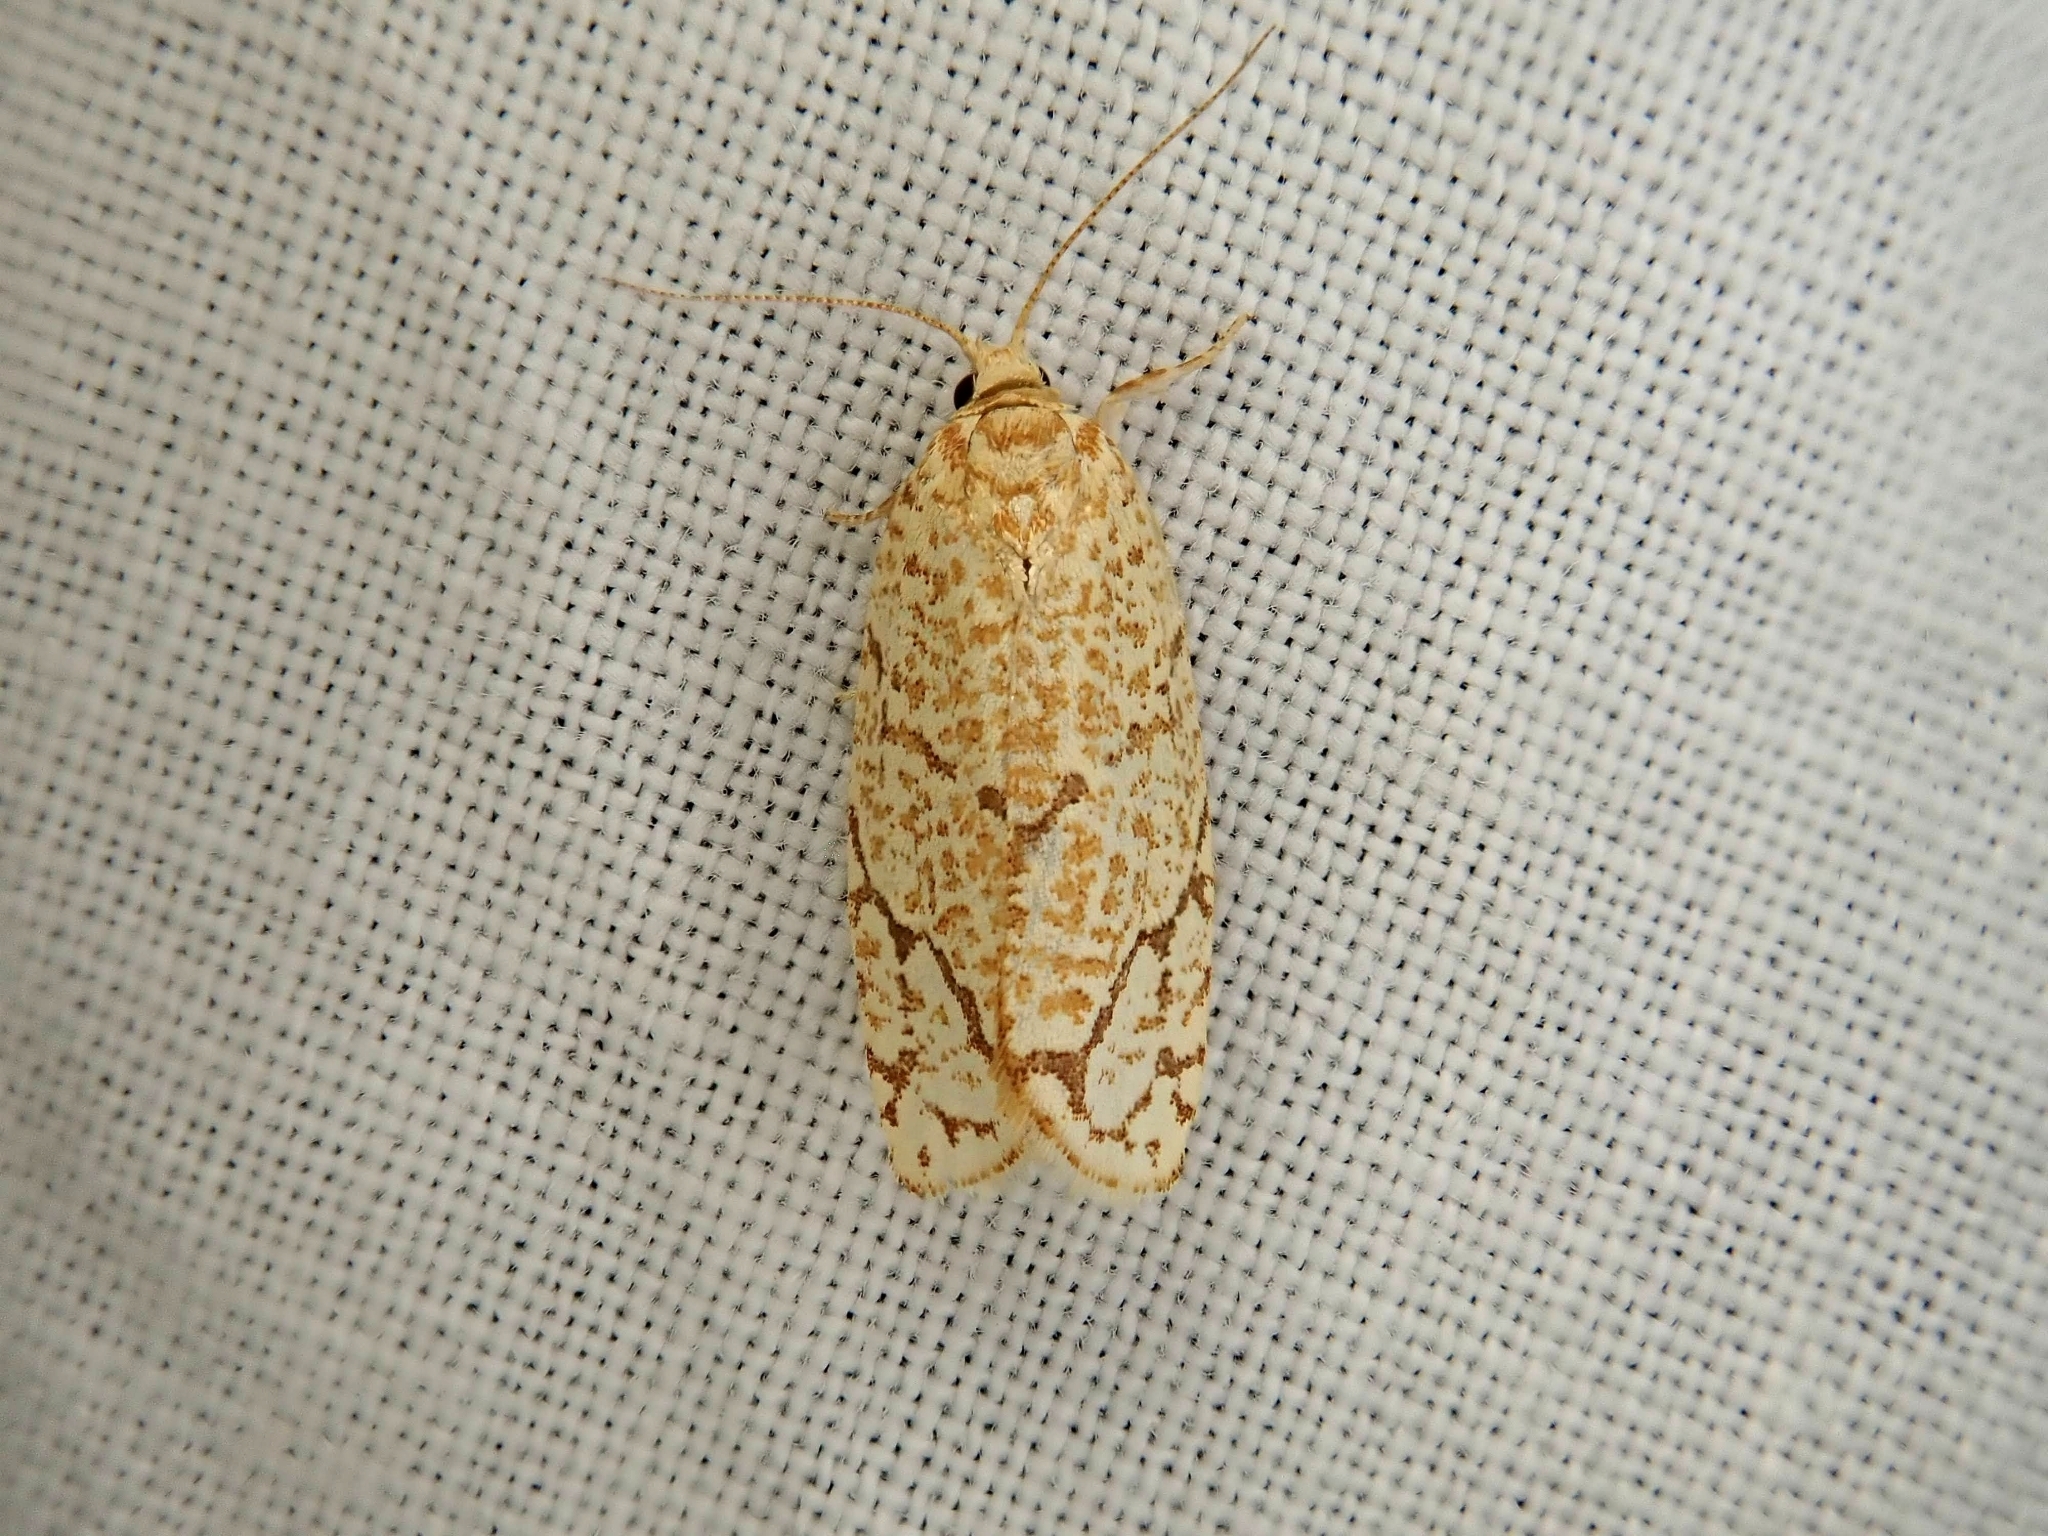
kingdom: Animalia
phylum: Arthropoda
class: Insecta
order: Lepidoptera
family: Tortricidae
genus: Argyrotaenia
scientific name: Argyrotaenia quercifoliana
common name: Yellow-winged oak leafroller moth
